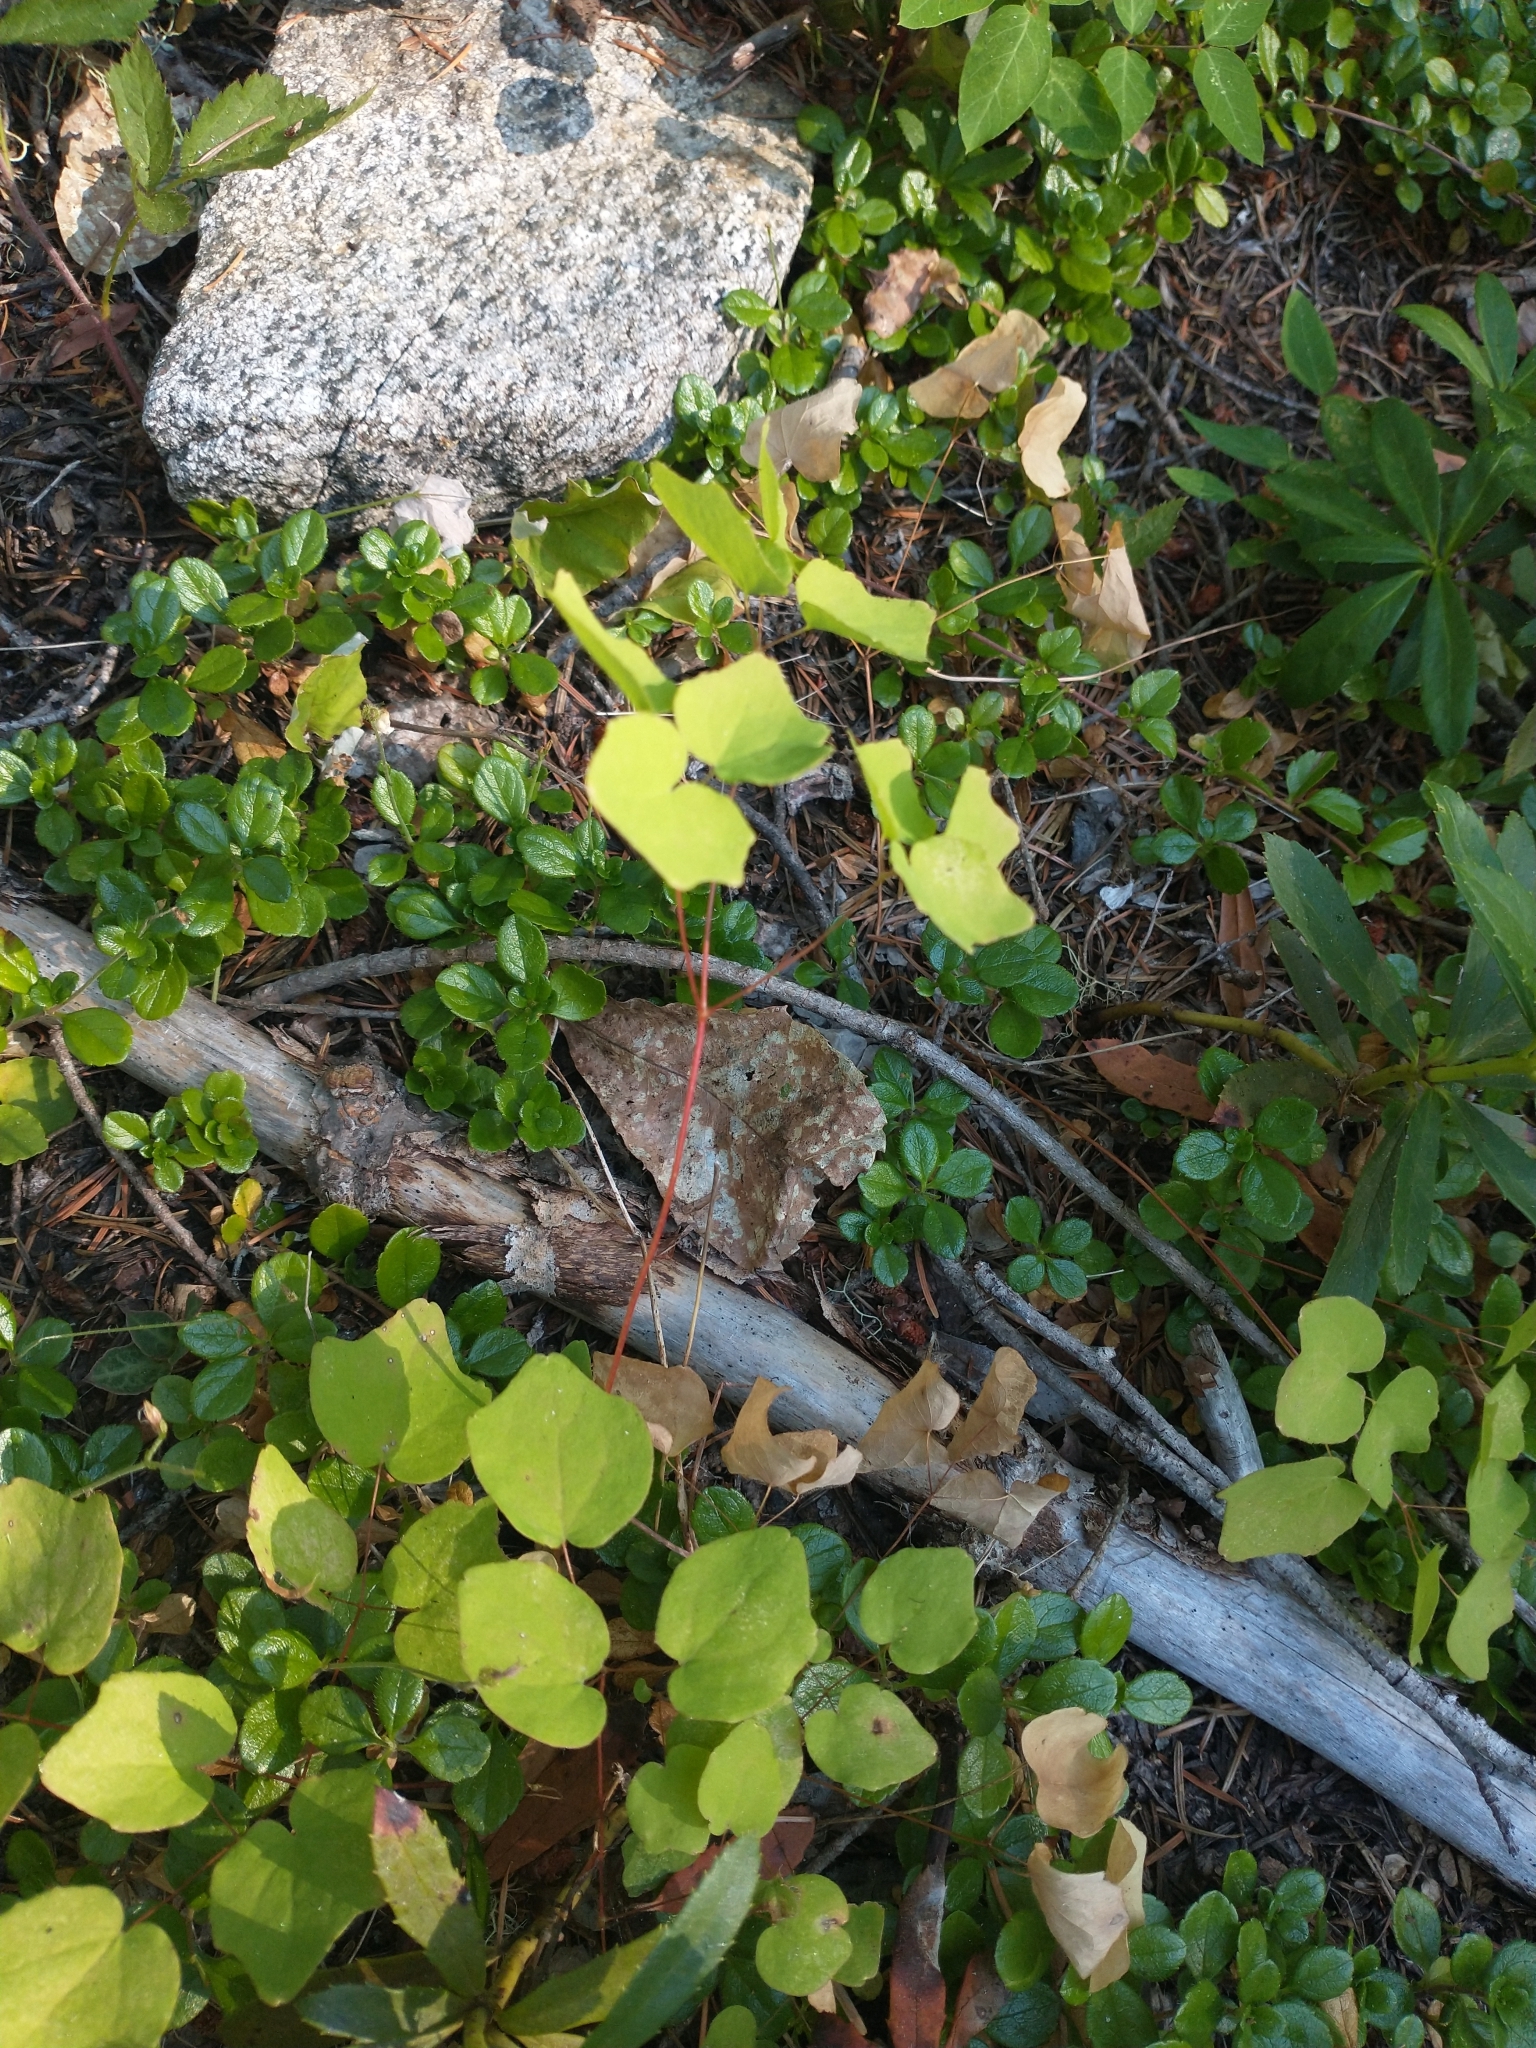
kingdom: Plantae
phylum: Tracheophyta
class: Magnoliopsida
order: Ranunculales
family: Berberidaceae
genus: Vancouveria
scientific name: Vancouveria hexandra
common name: Northern inside-out-flower
